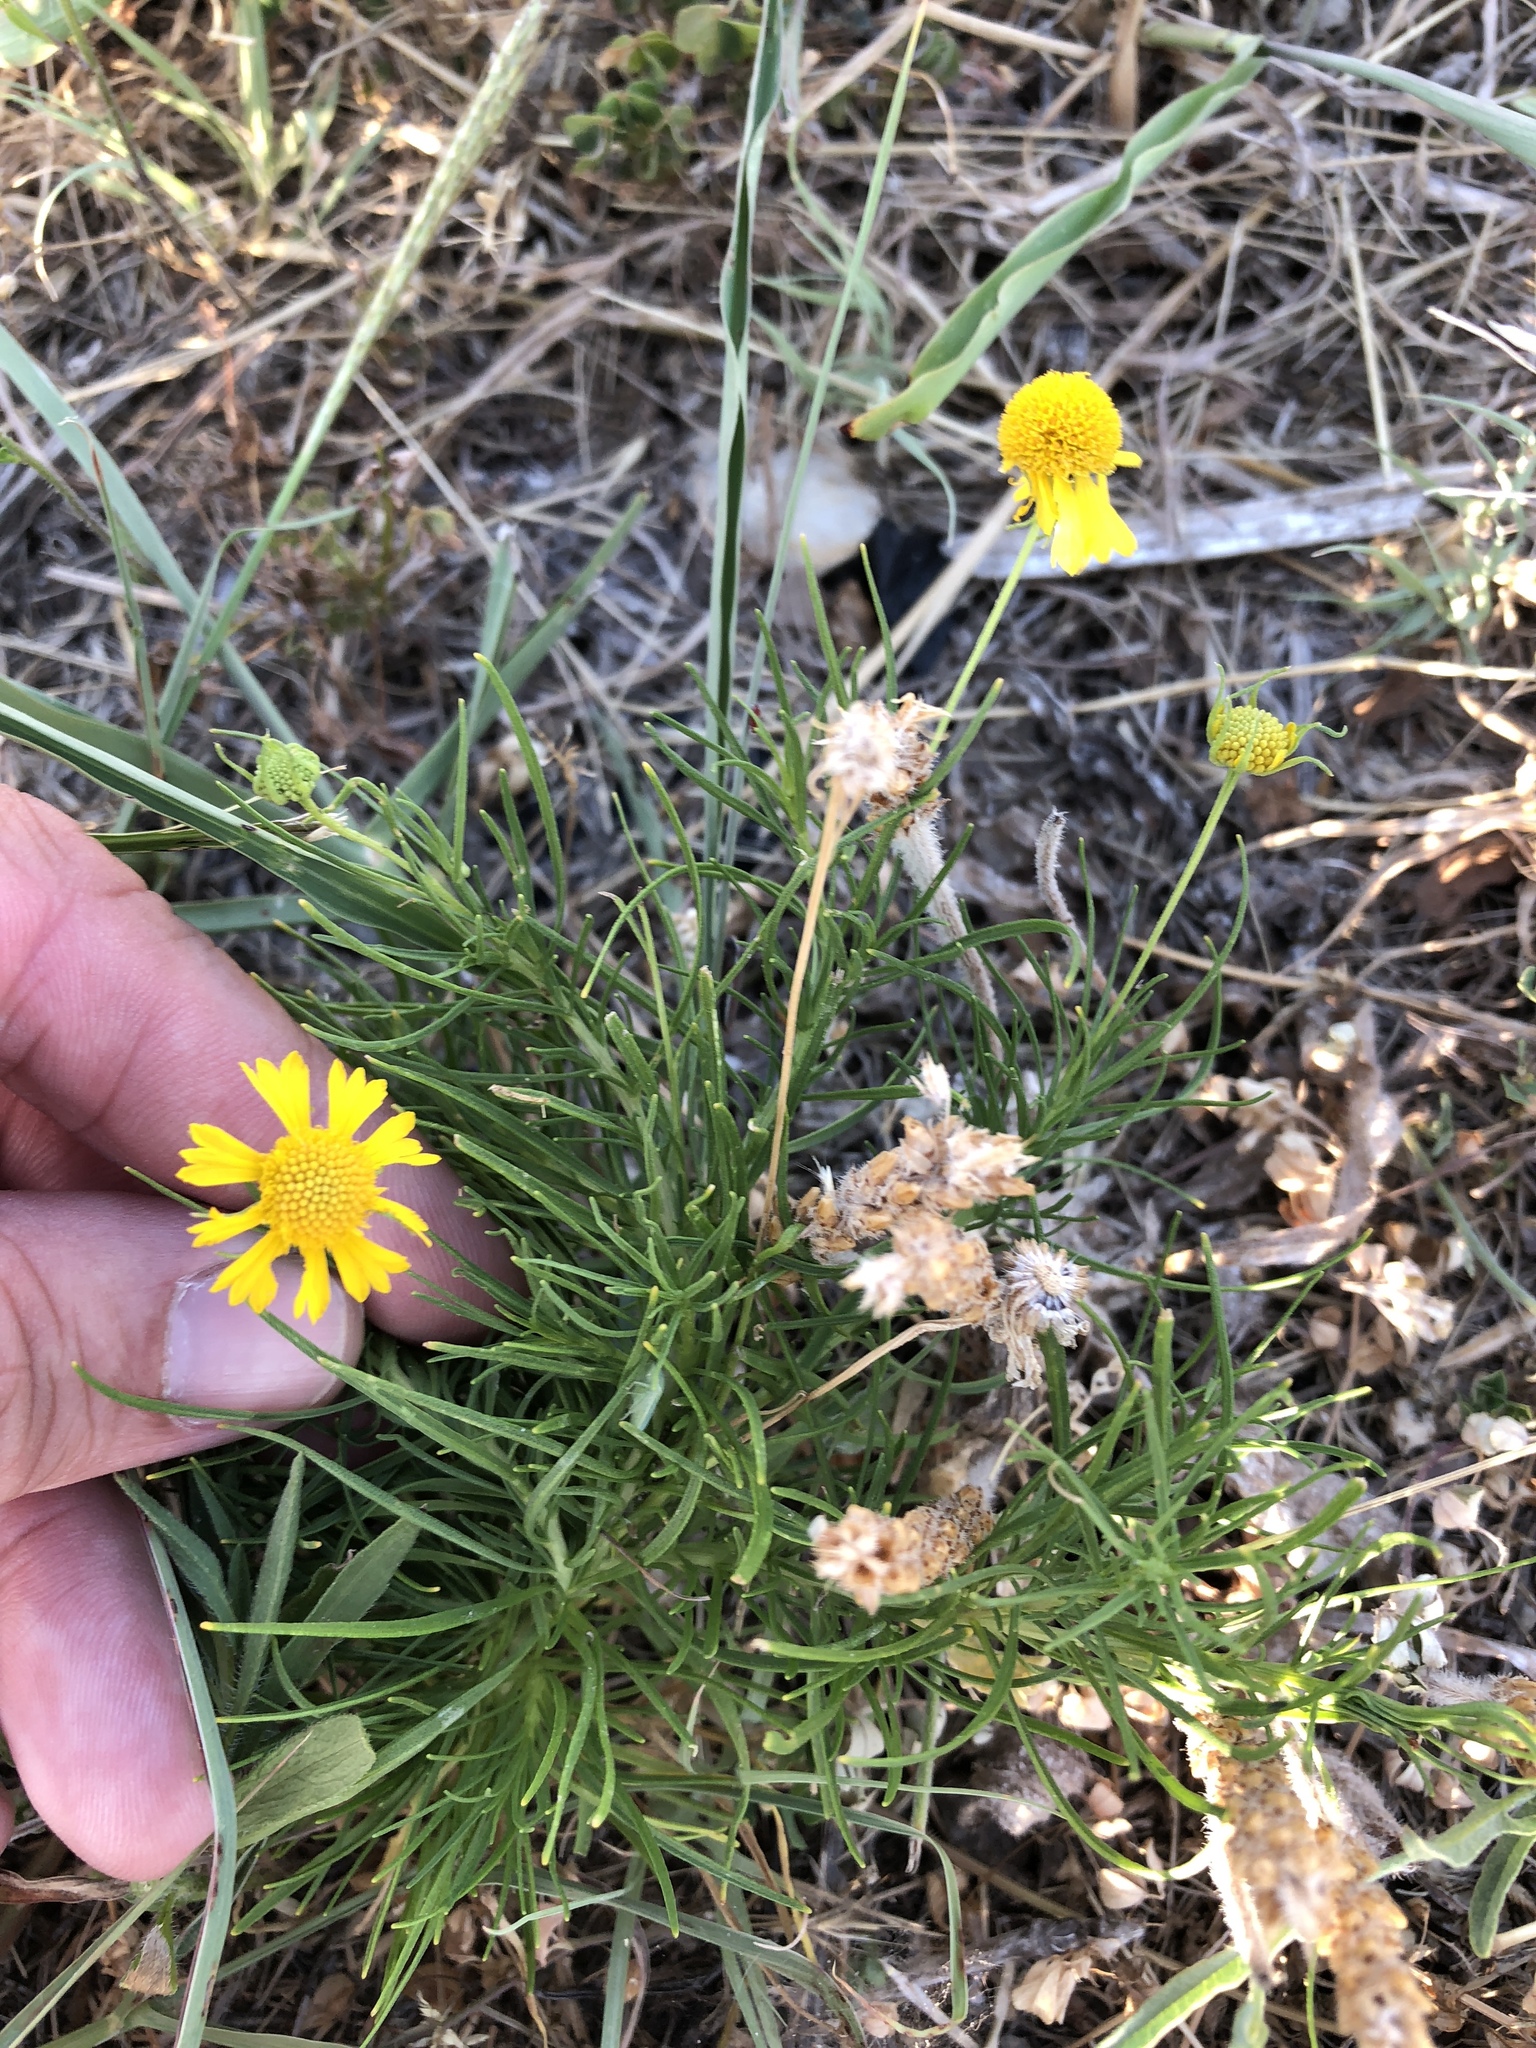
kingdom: Plantae
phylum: Tracheophyta
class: Magnoliopsida
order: Asterales
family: Asteraceae
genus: Helenium
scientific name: Helenium amarum
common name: Bitter sneezeweed
